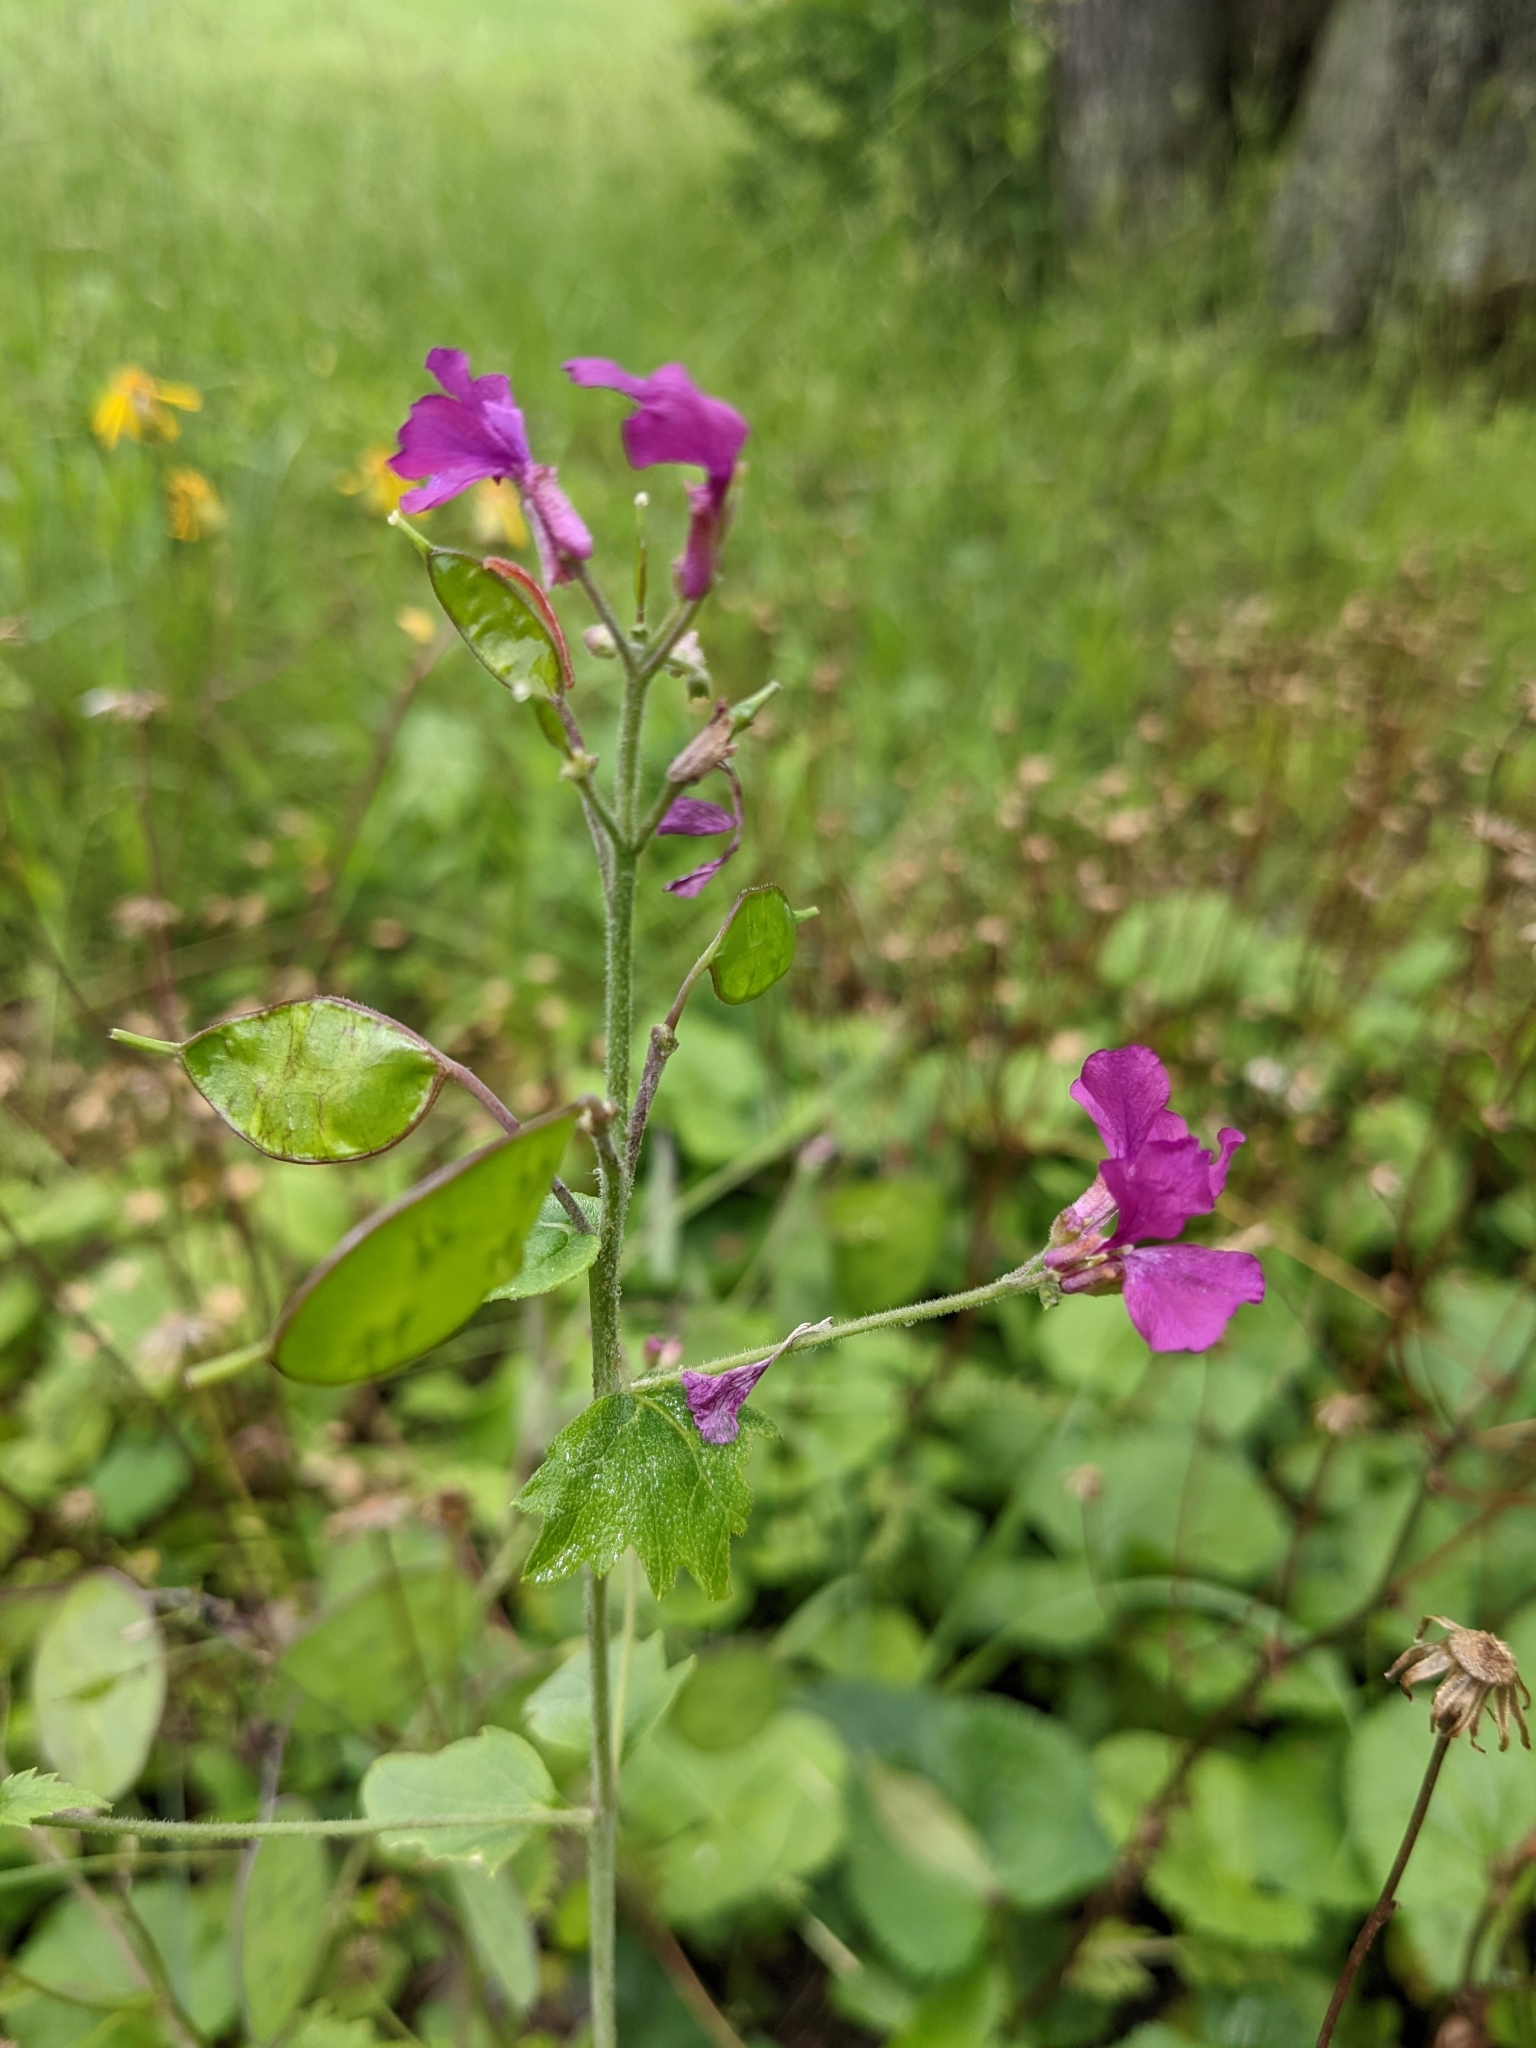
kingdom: Plantae
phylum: Tracheophyta
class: Magnoliopsida
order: Brassicales
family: Brassicaceae
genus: Lunaria
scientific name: Lunaria annua
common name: Honesty
